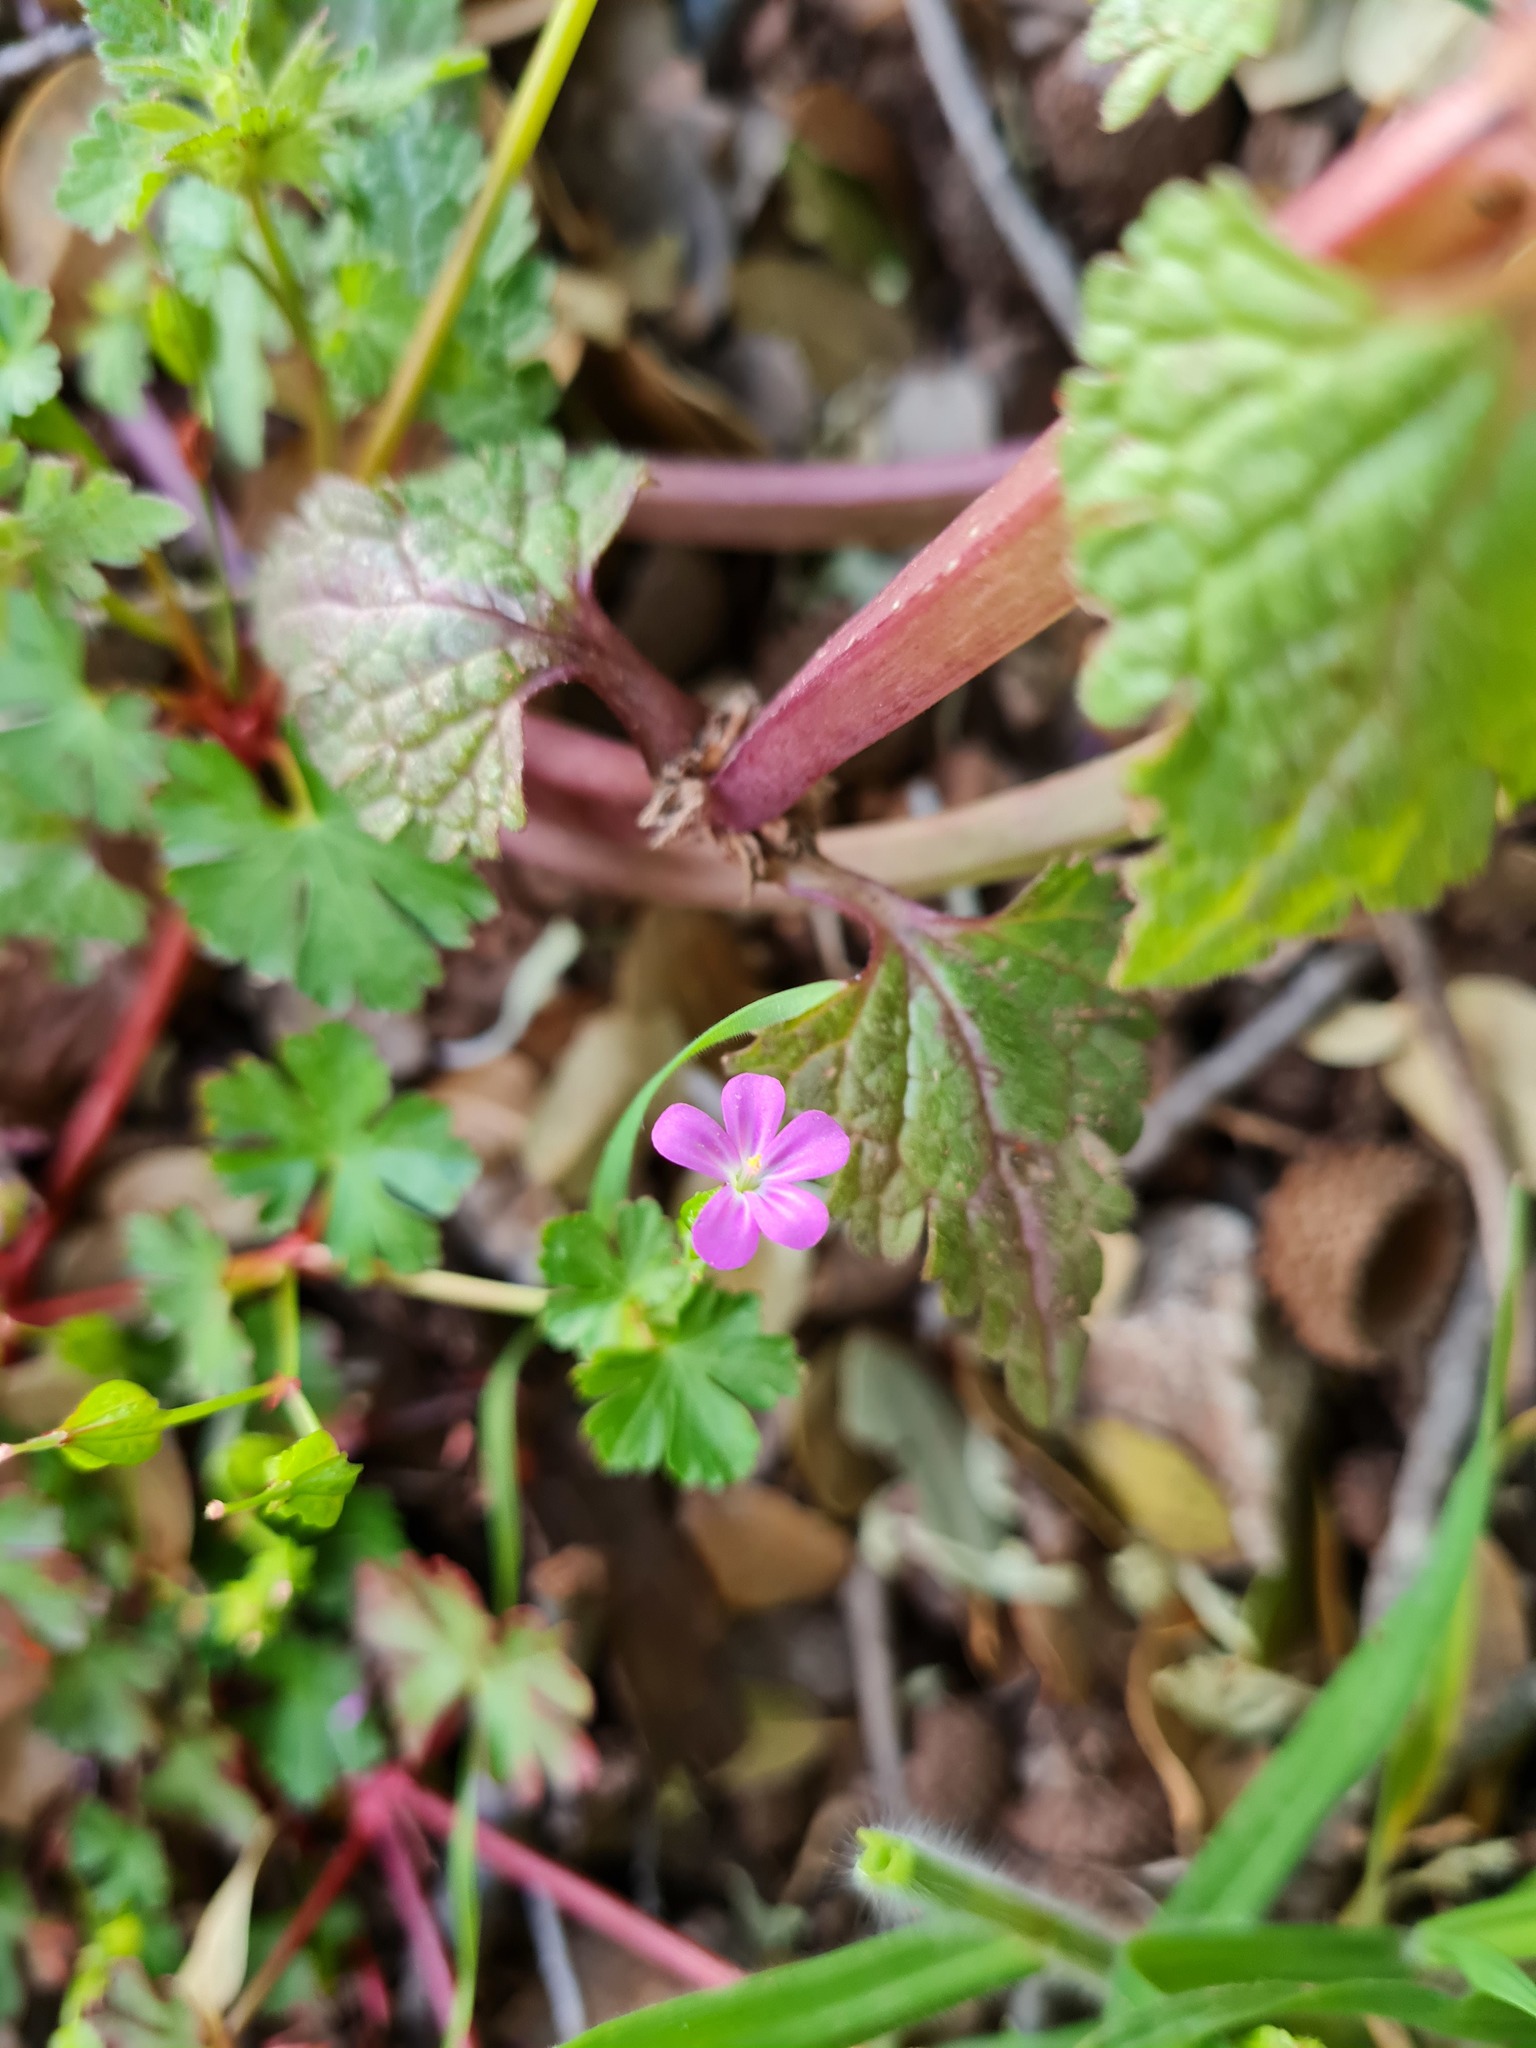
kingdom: Plantae
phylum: Tracheophyta
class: Magnoliopsida
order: Geraniales
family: Geraniaceae
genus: Geranium
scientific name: Geranium lucidum
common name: Shining crane's-bill
